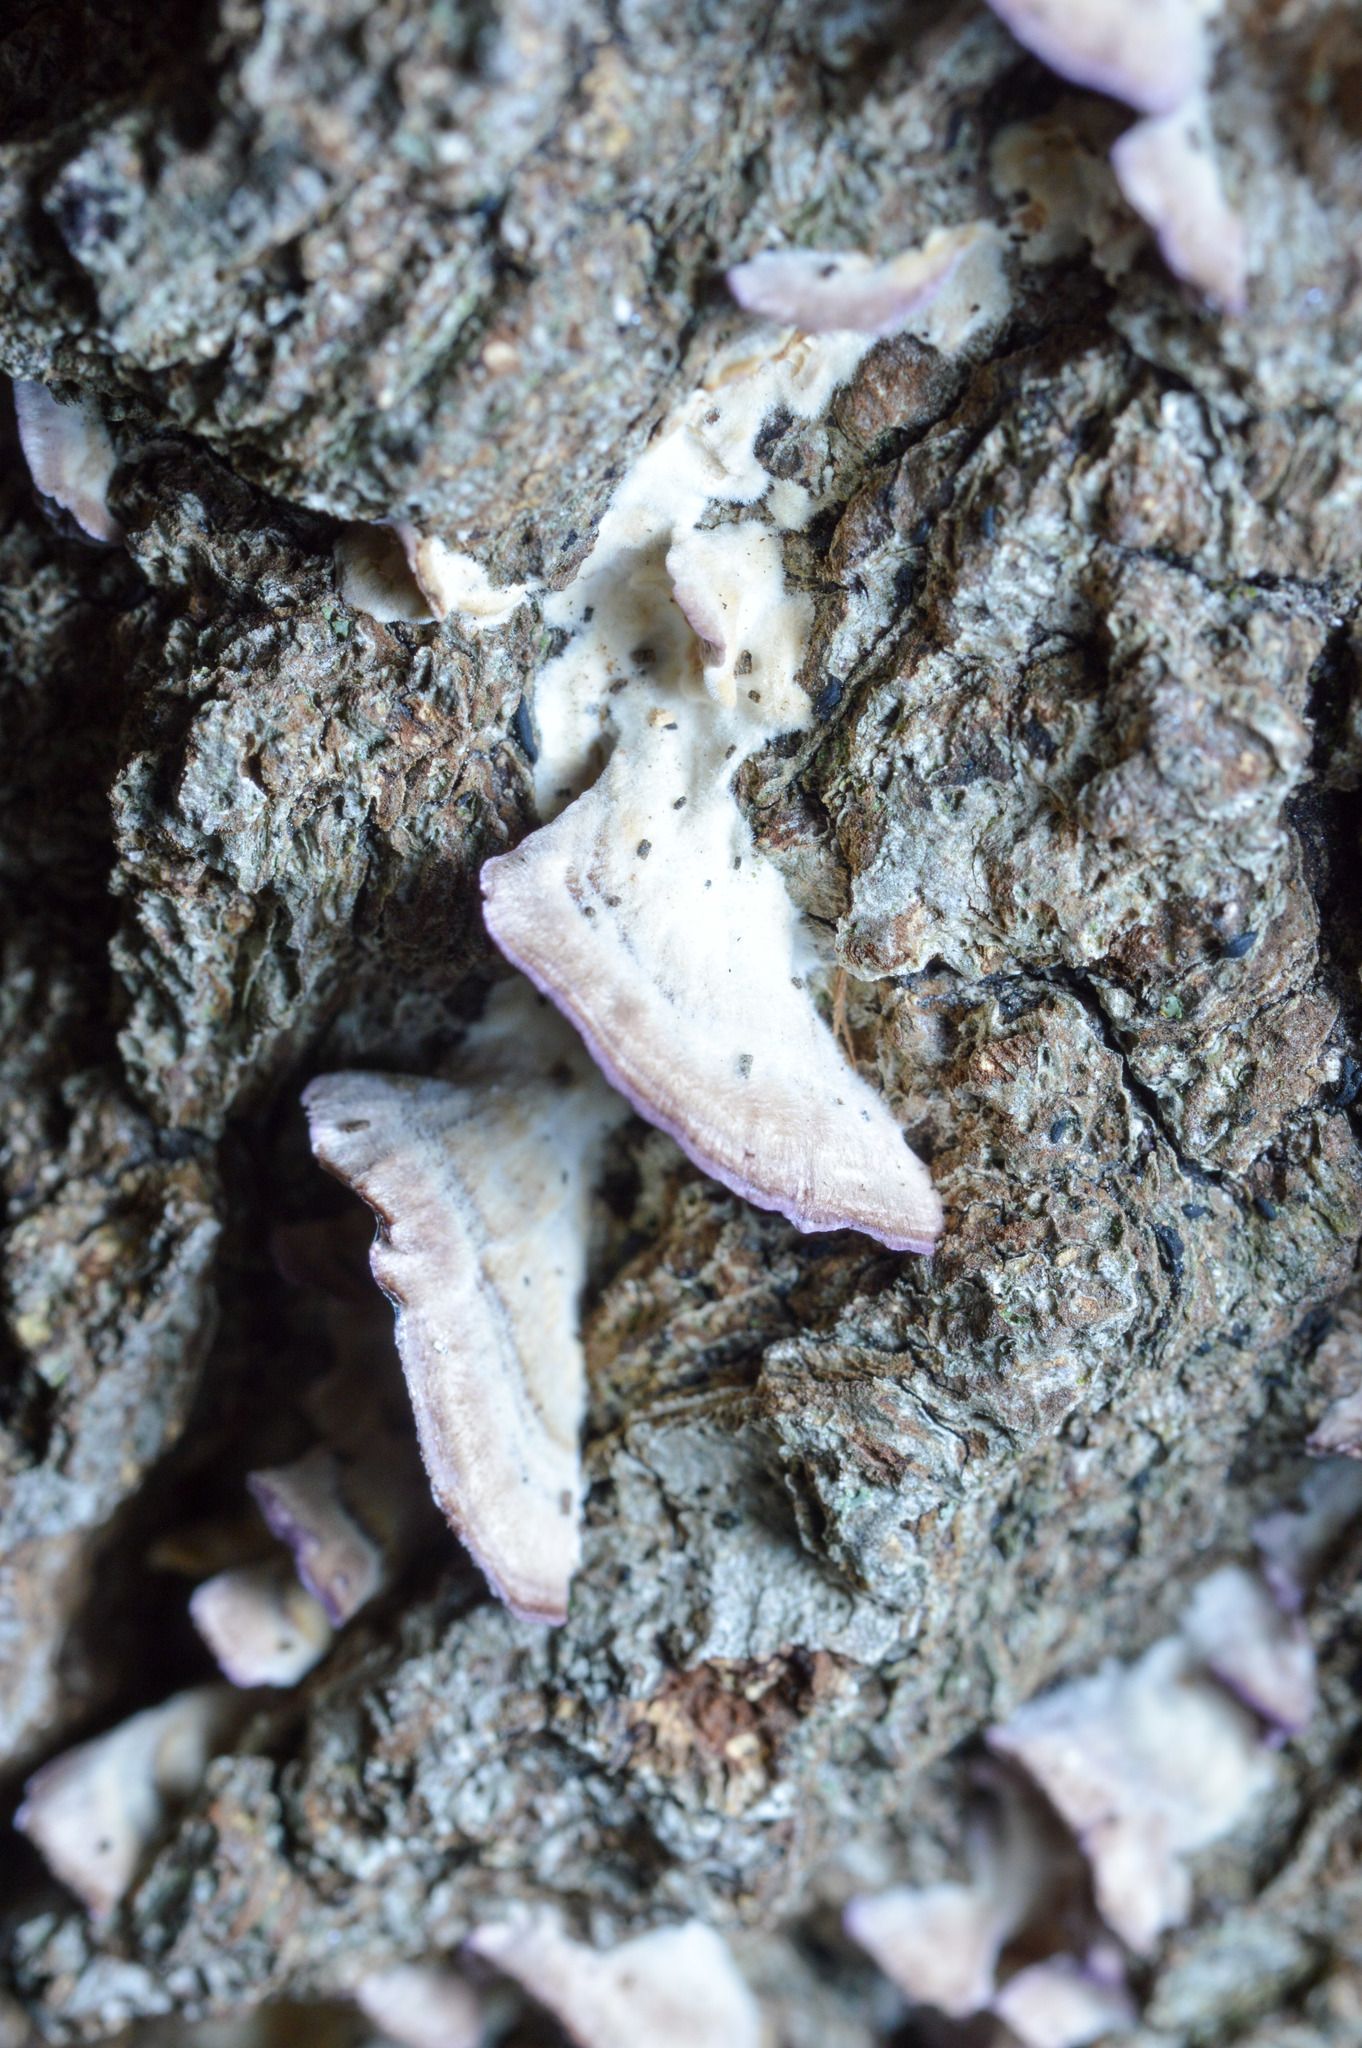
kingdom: Fungi
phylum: Basidiomycota
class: Agaricomycetes
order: Hymenochaetales
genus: Trichaptum
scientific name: Trichaptum biforme
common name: Violet-toothed polypore
